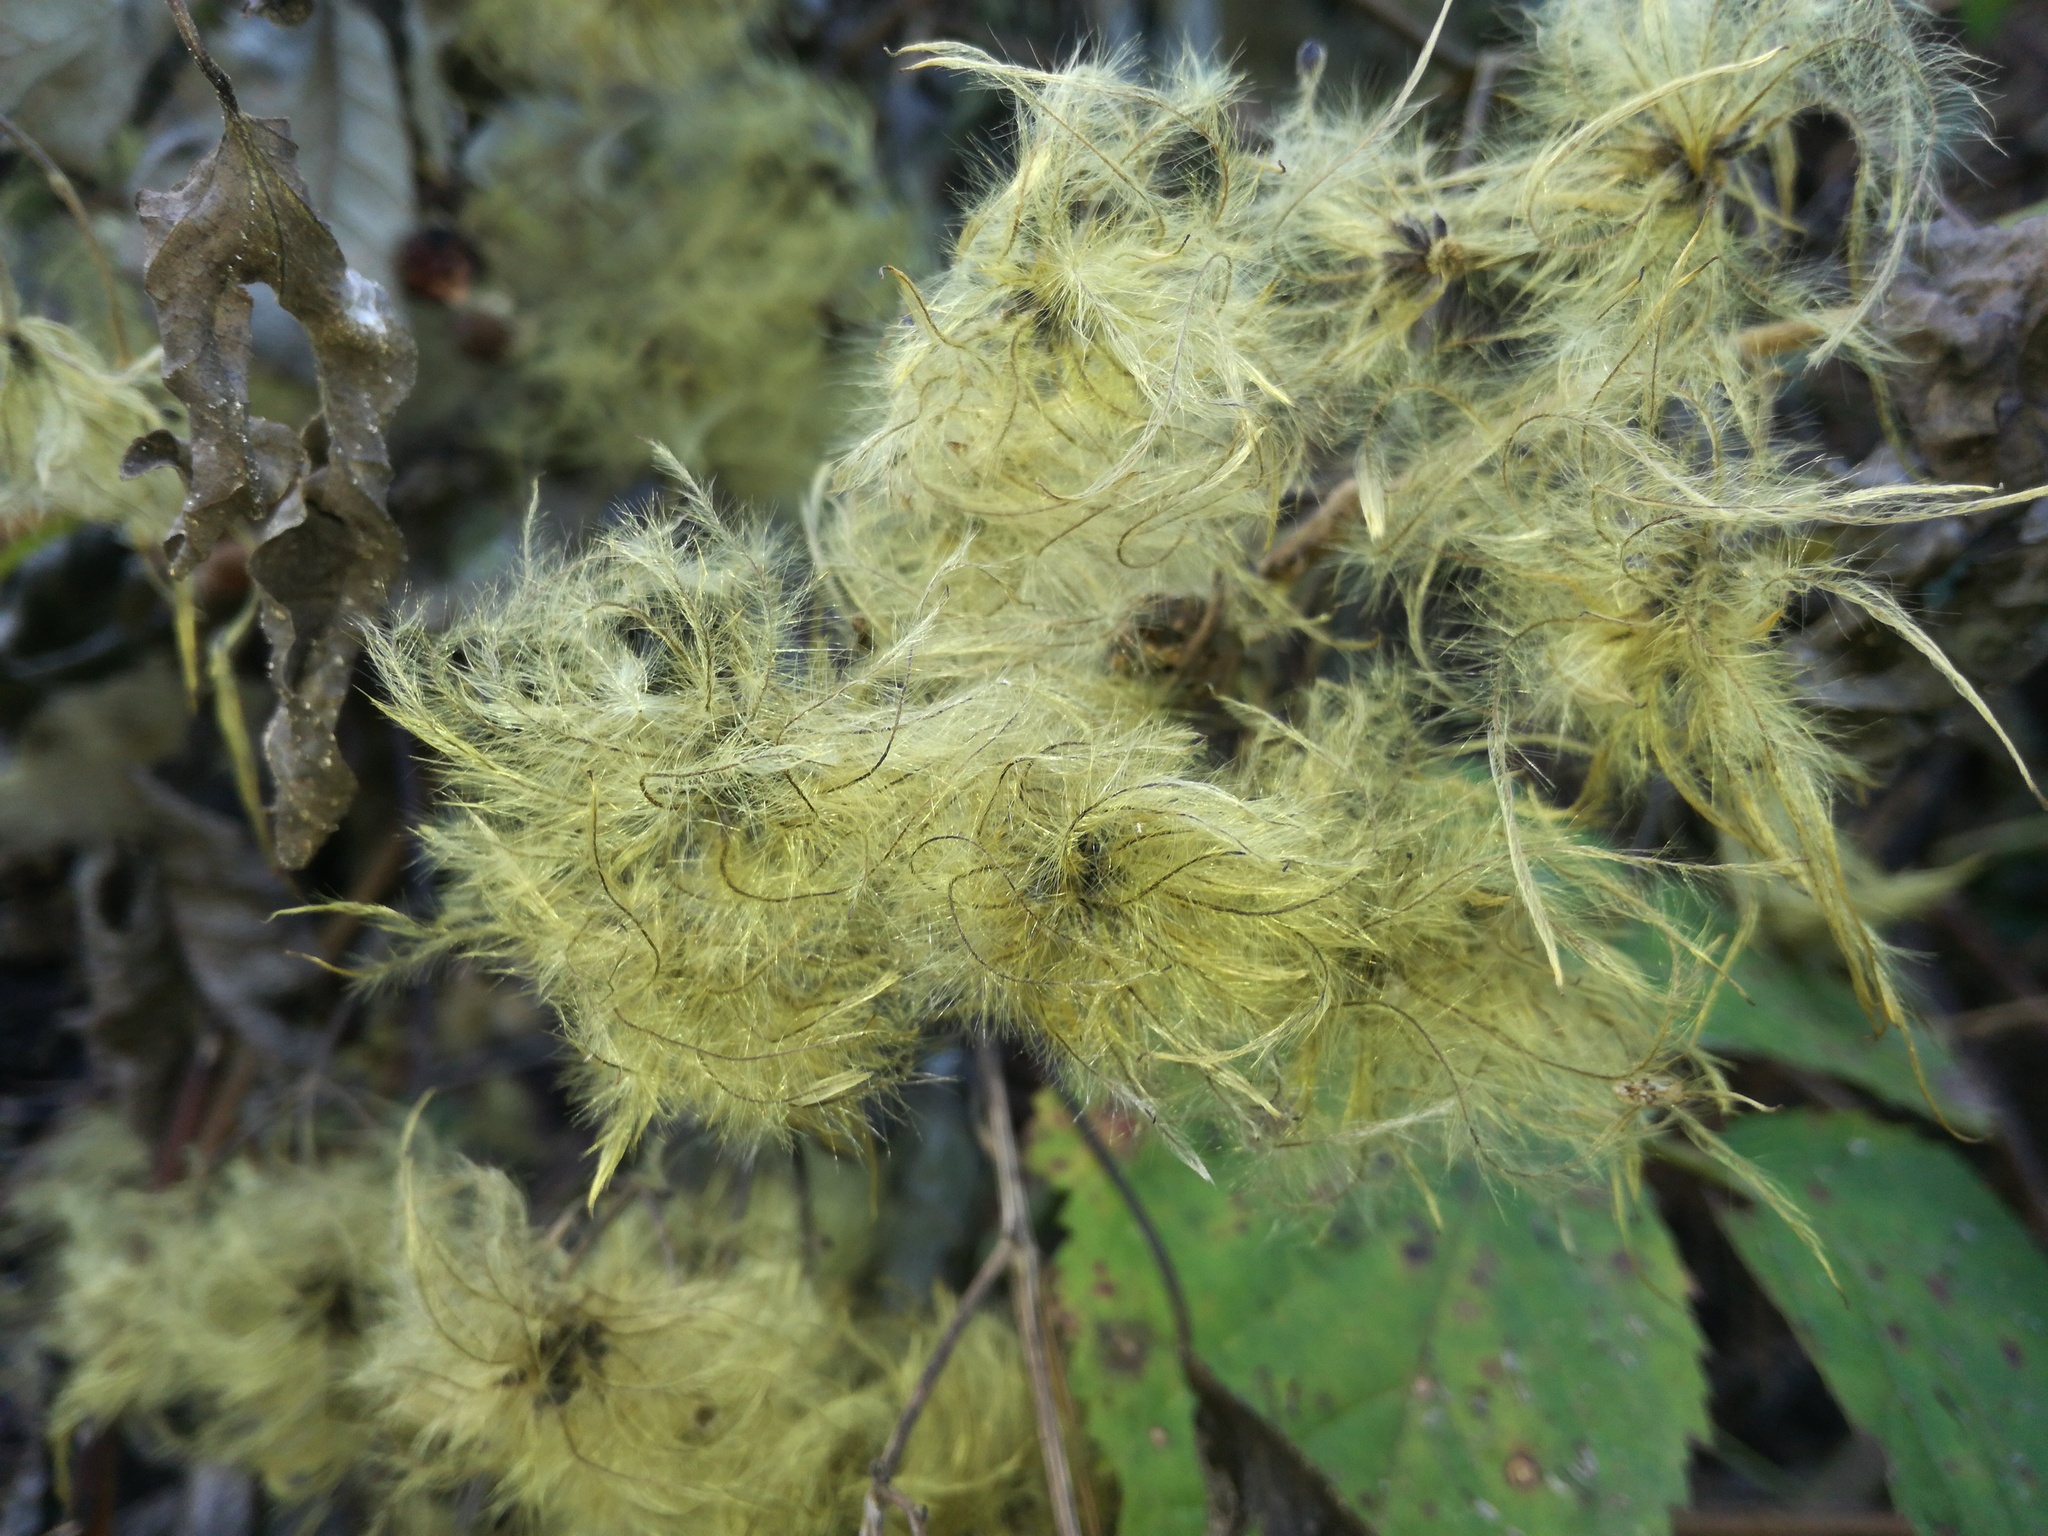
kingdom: Plantae
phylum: Tracheophyta
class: Magnoliopsida
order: Ranunculales
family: Ranunculaceae
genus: Clematis
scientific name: Clematis vitalba
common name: Evergreen clematis
